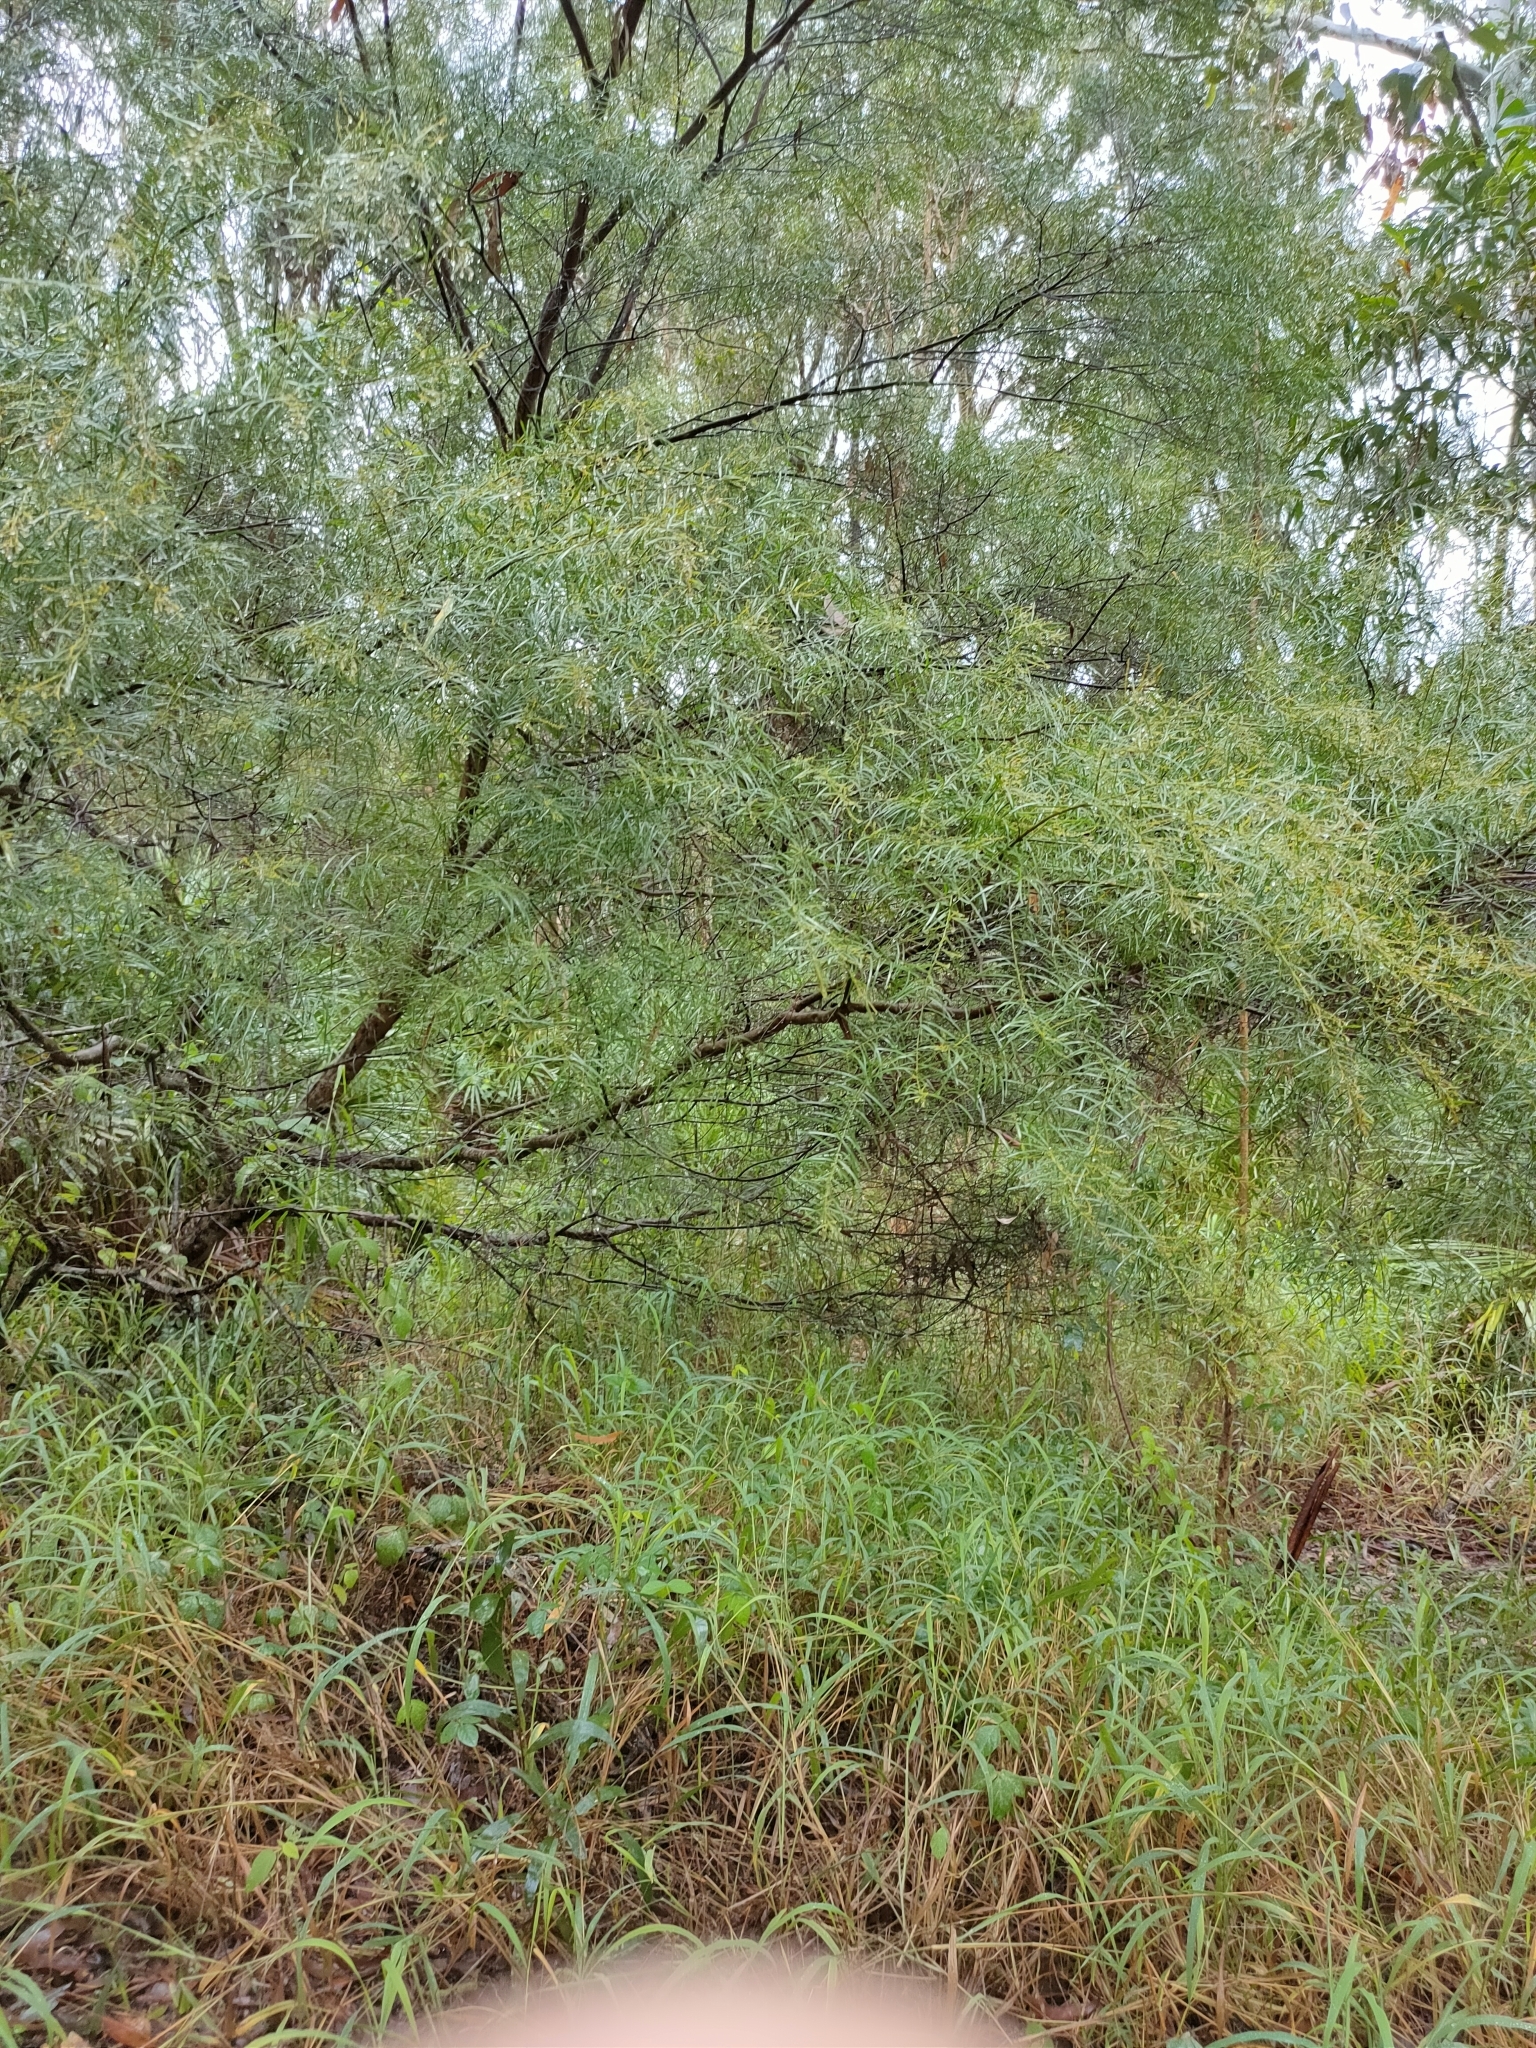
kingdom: Plantae
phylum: Tracheophyta
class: Magnoliopsida
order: Fabales
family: Fabaceae
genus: Acacia
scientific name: Acacia fimbriata
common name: Brisbane golden wattle
